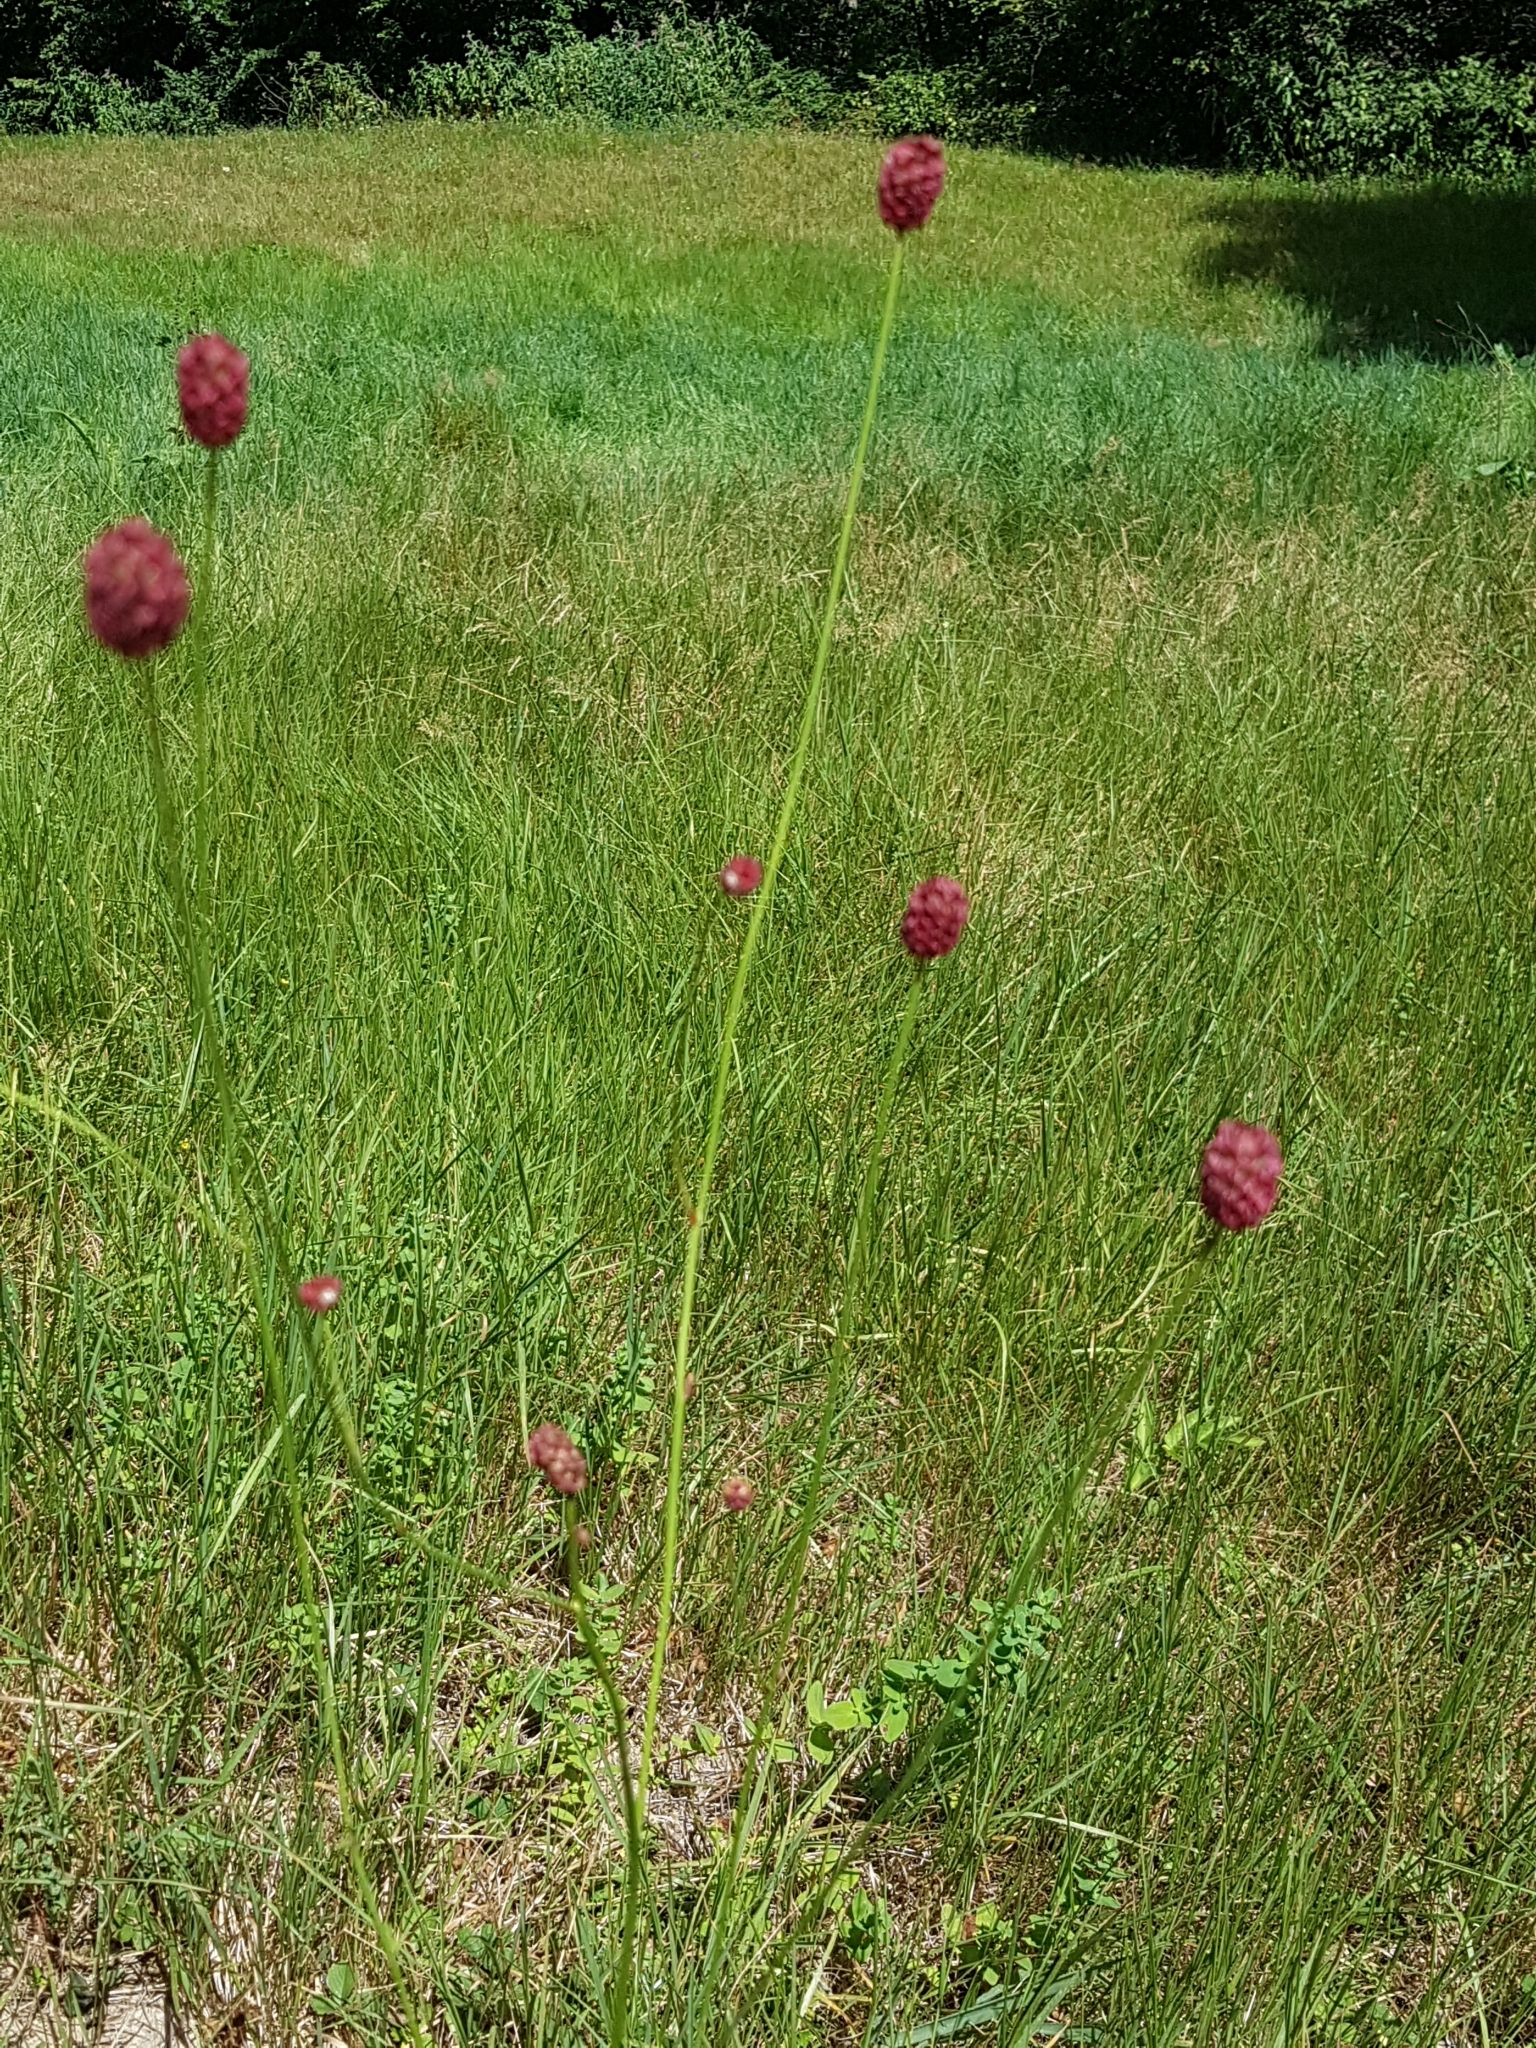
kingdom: Plantae
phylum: Tracheophyta
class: Magnoliopsida
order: Rosales
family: Rosaceae
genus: Sanguisorba
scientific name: Sanguisorba officinalis
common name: Great burnet
